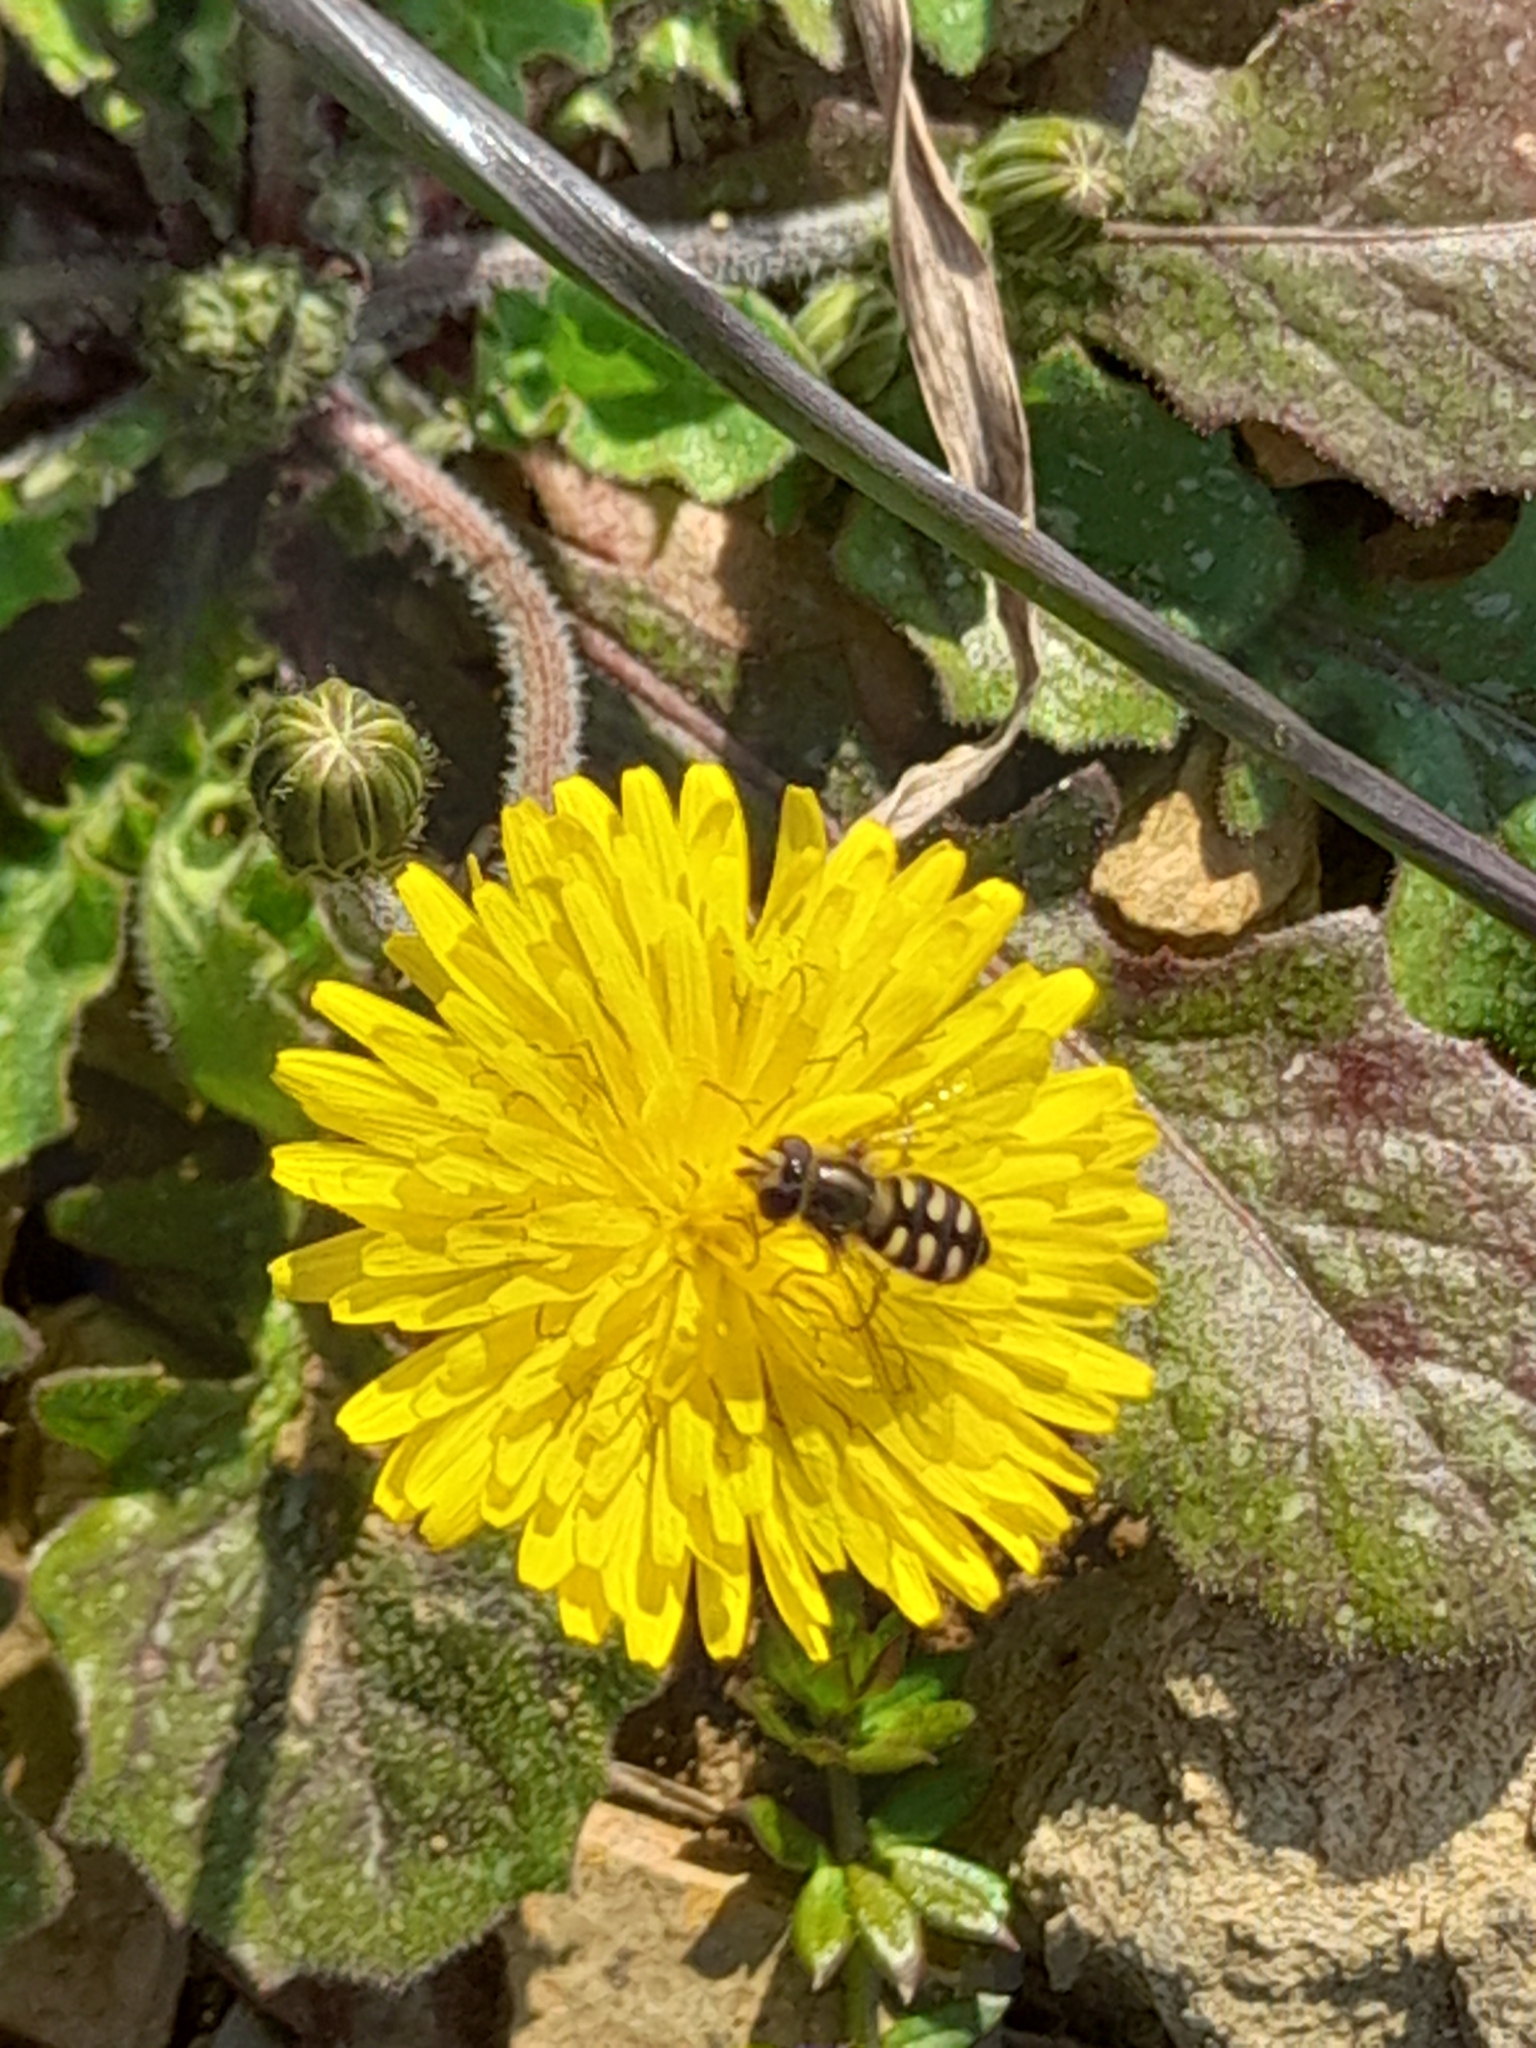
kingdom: Animalia
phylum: Arthropoda
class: Insecta
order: Diptera
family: Syrphidae
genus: Eupeodes
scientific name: Eupeodes corollae
